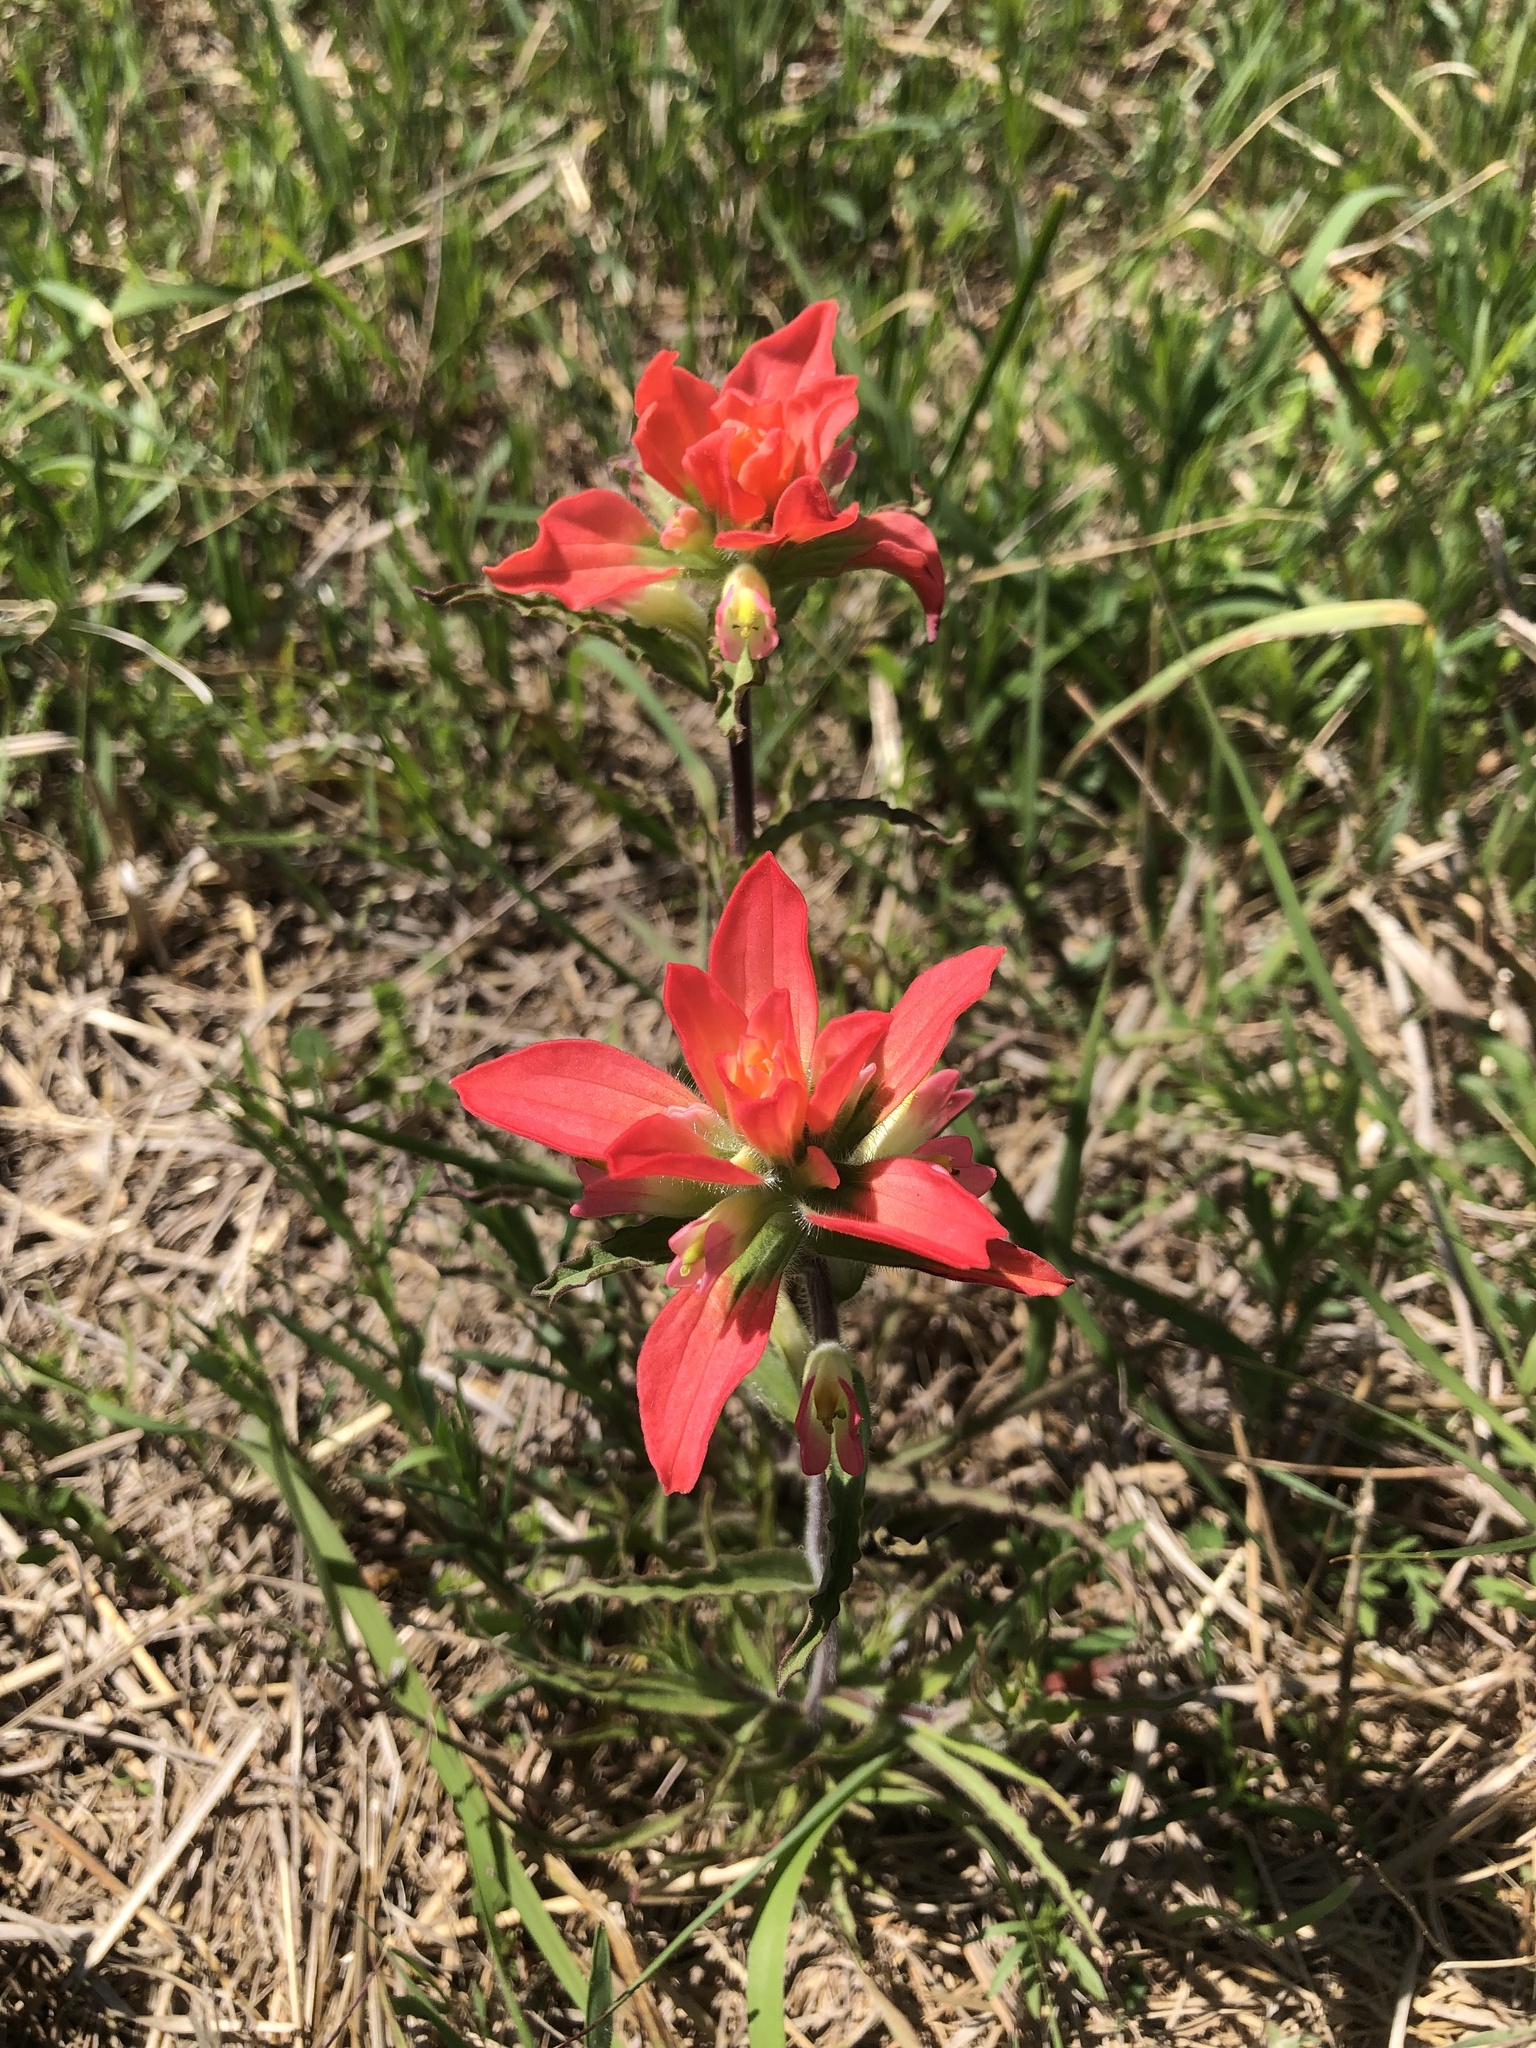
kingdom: Plantae
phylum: Tracheophyta
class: Magnoliopsida
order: Lamiales
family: Orobanchaceae
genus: Castilleja
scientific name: Castilleja indivisa
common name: Texas paintbrush
